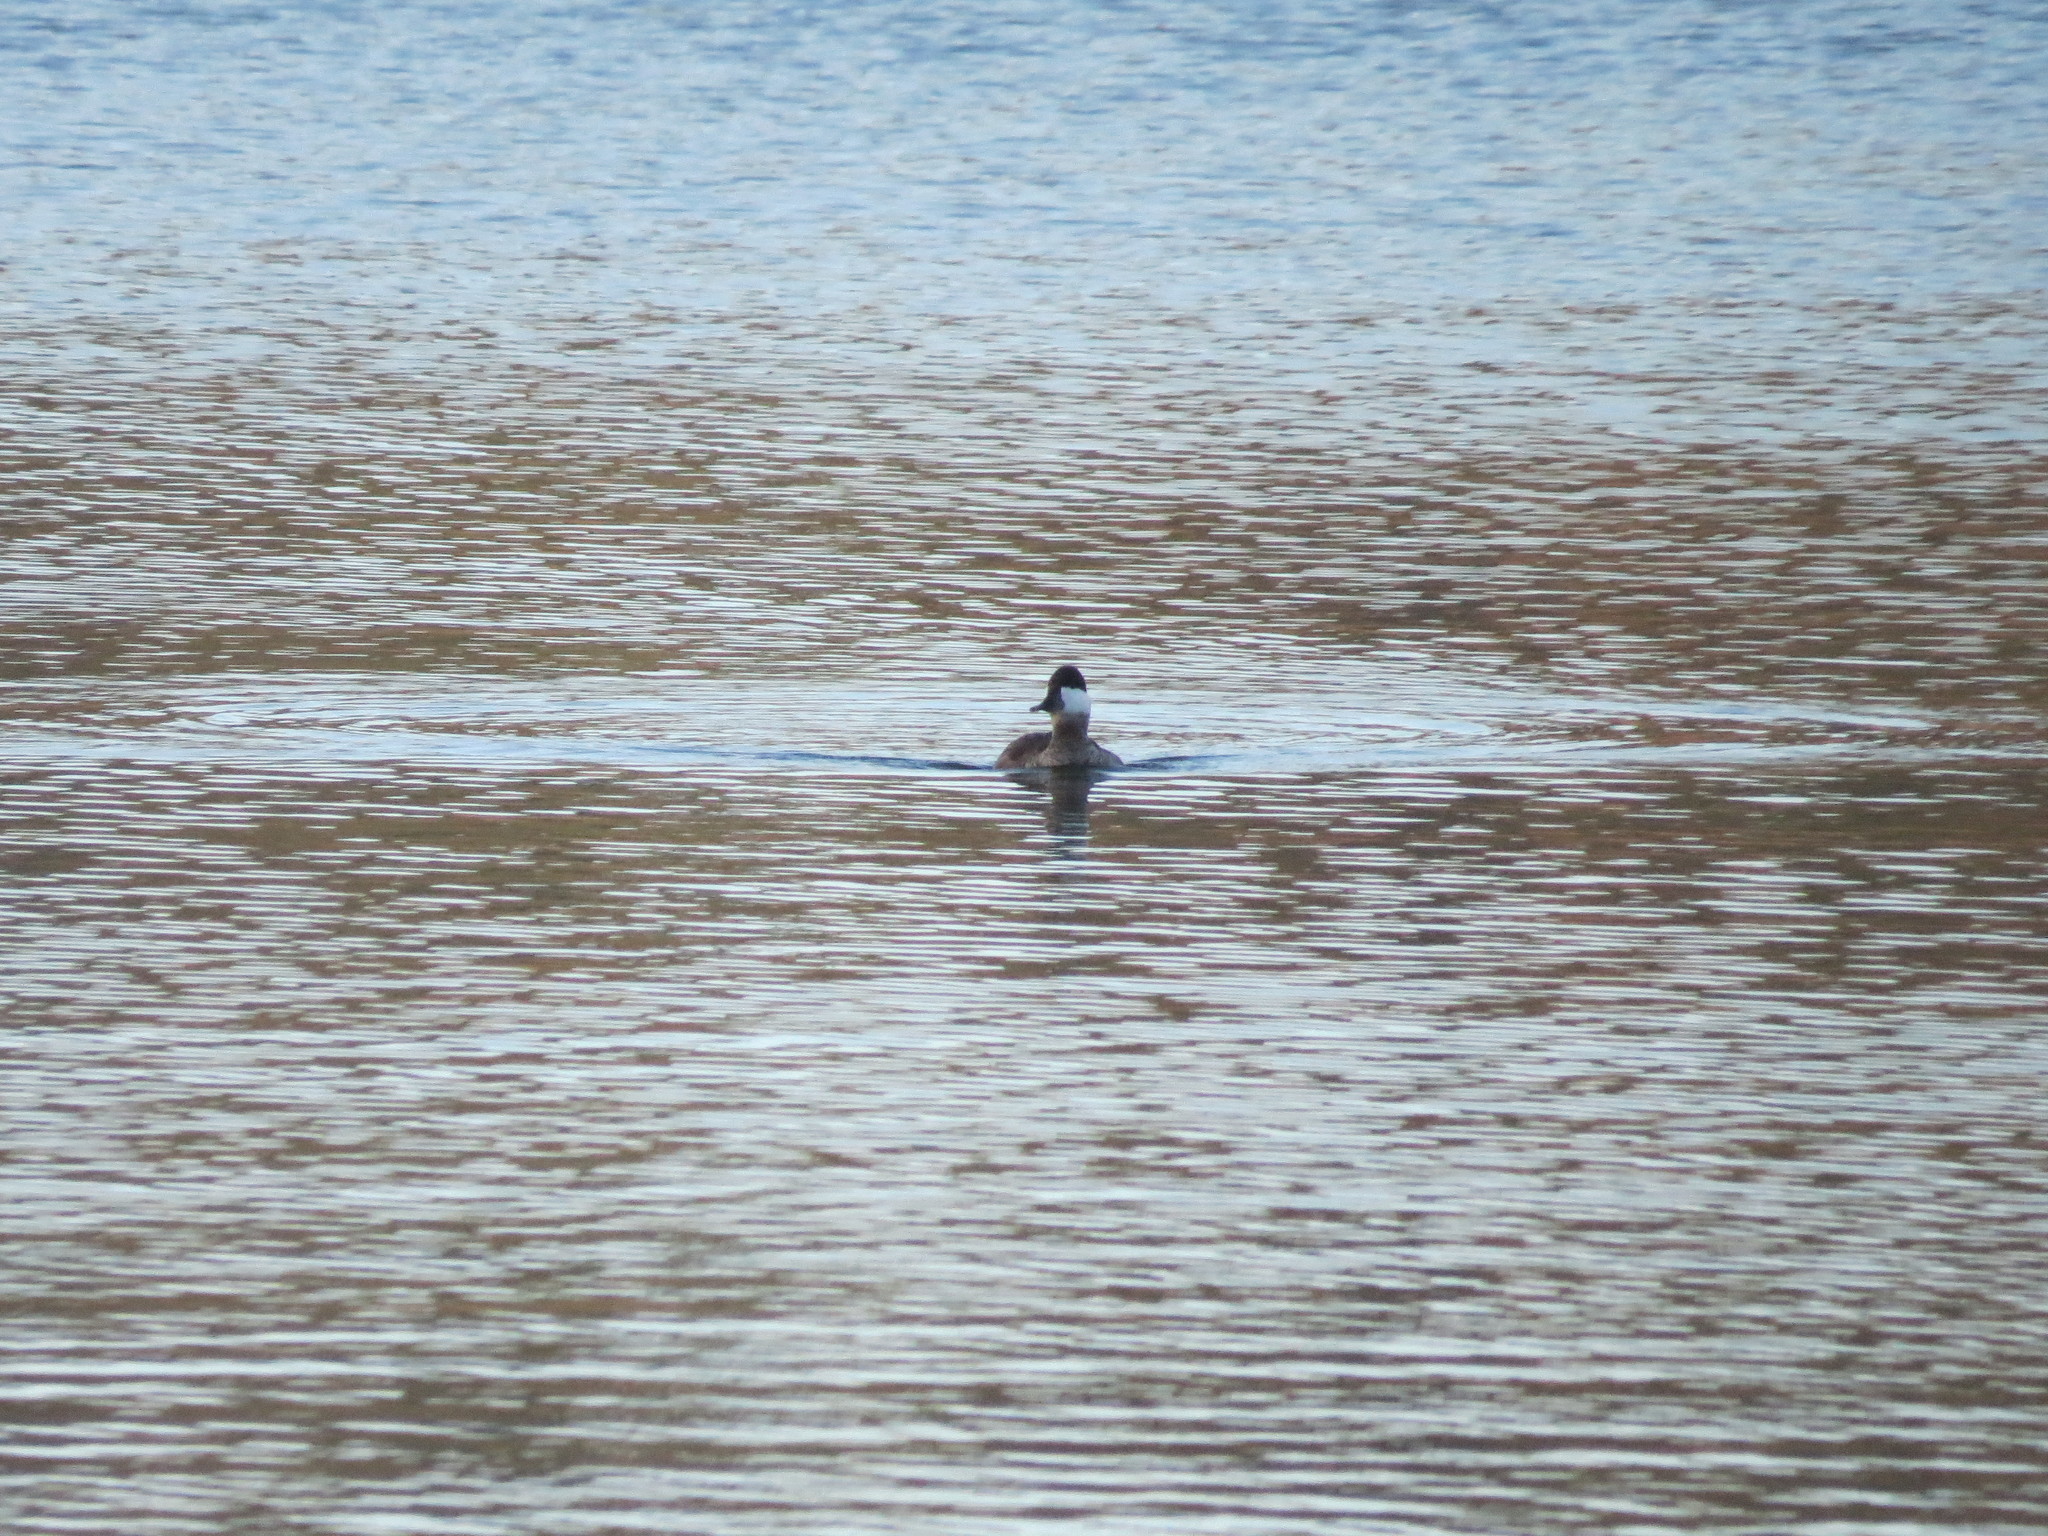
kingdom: Animalia
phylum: Chordata
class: Aves
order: Anseriformes
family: Anatidae
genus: Oxyura
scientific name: Oxyura jamaicensis
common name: Ruddy duck
